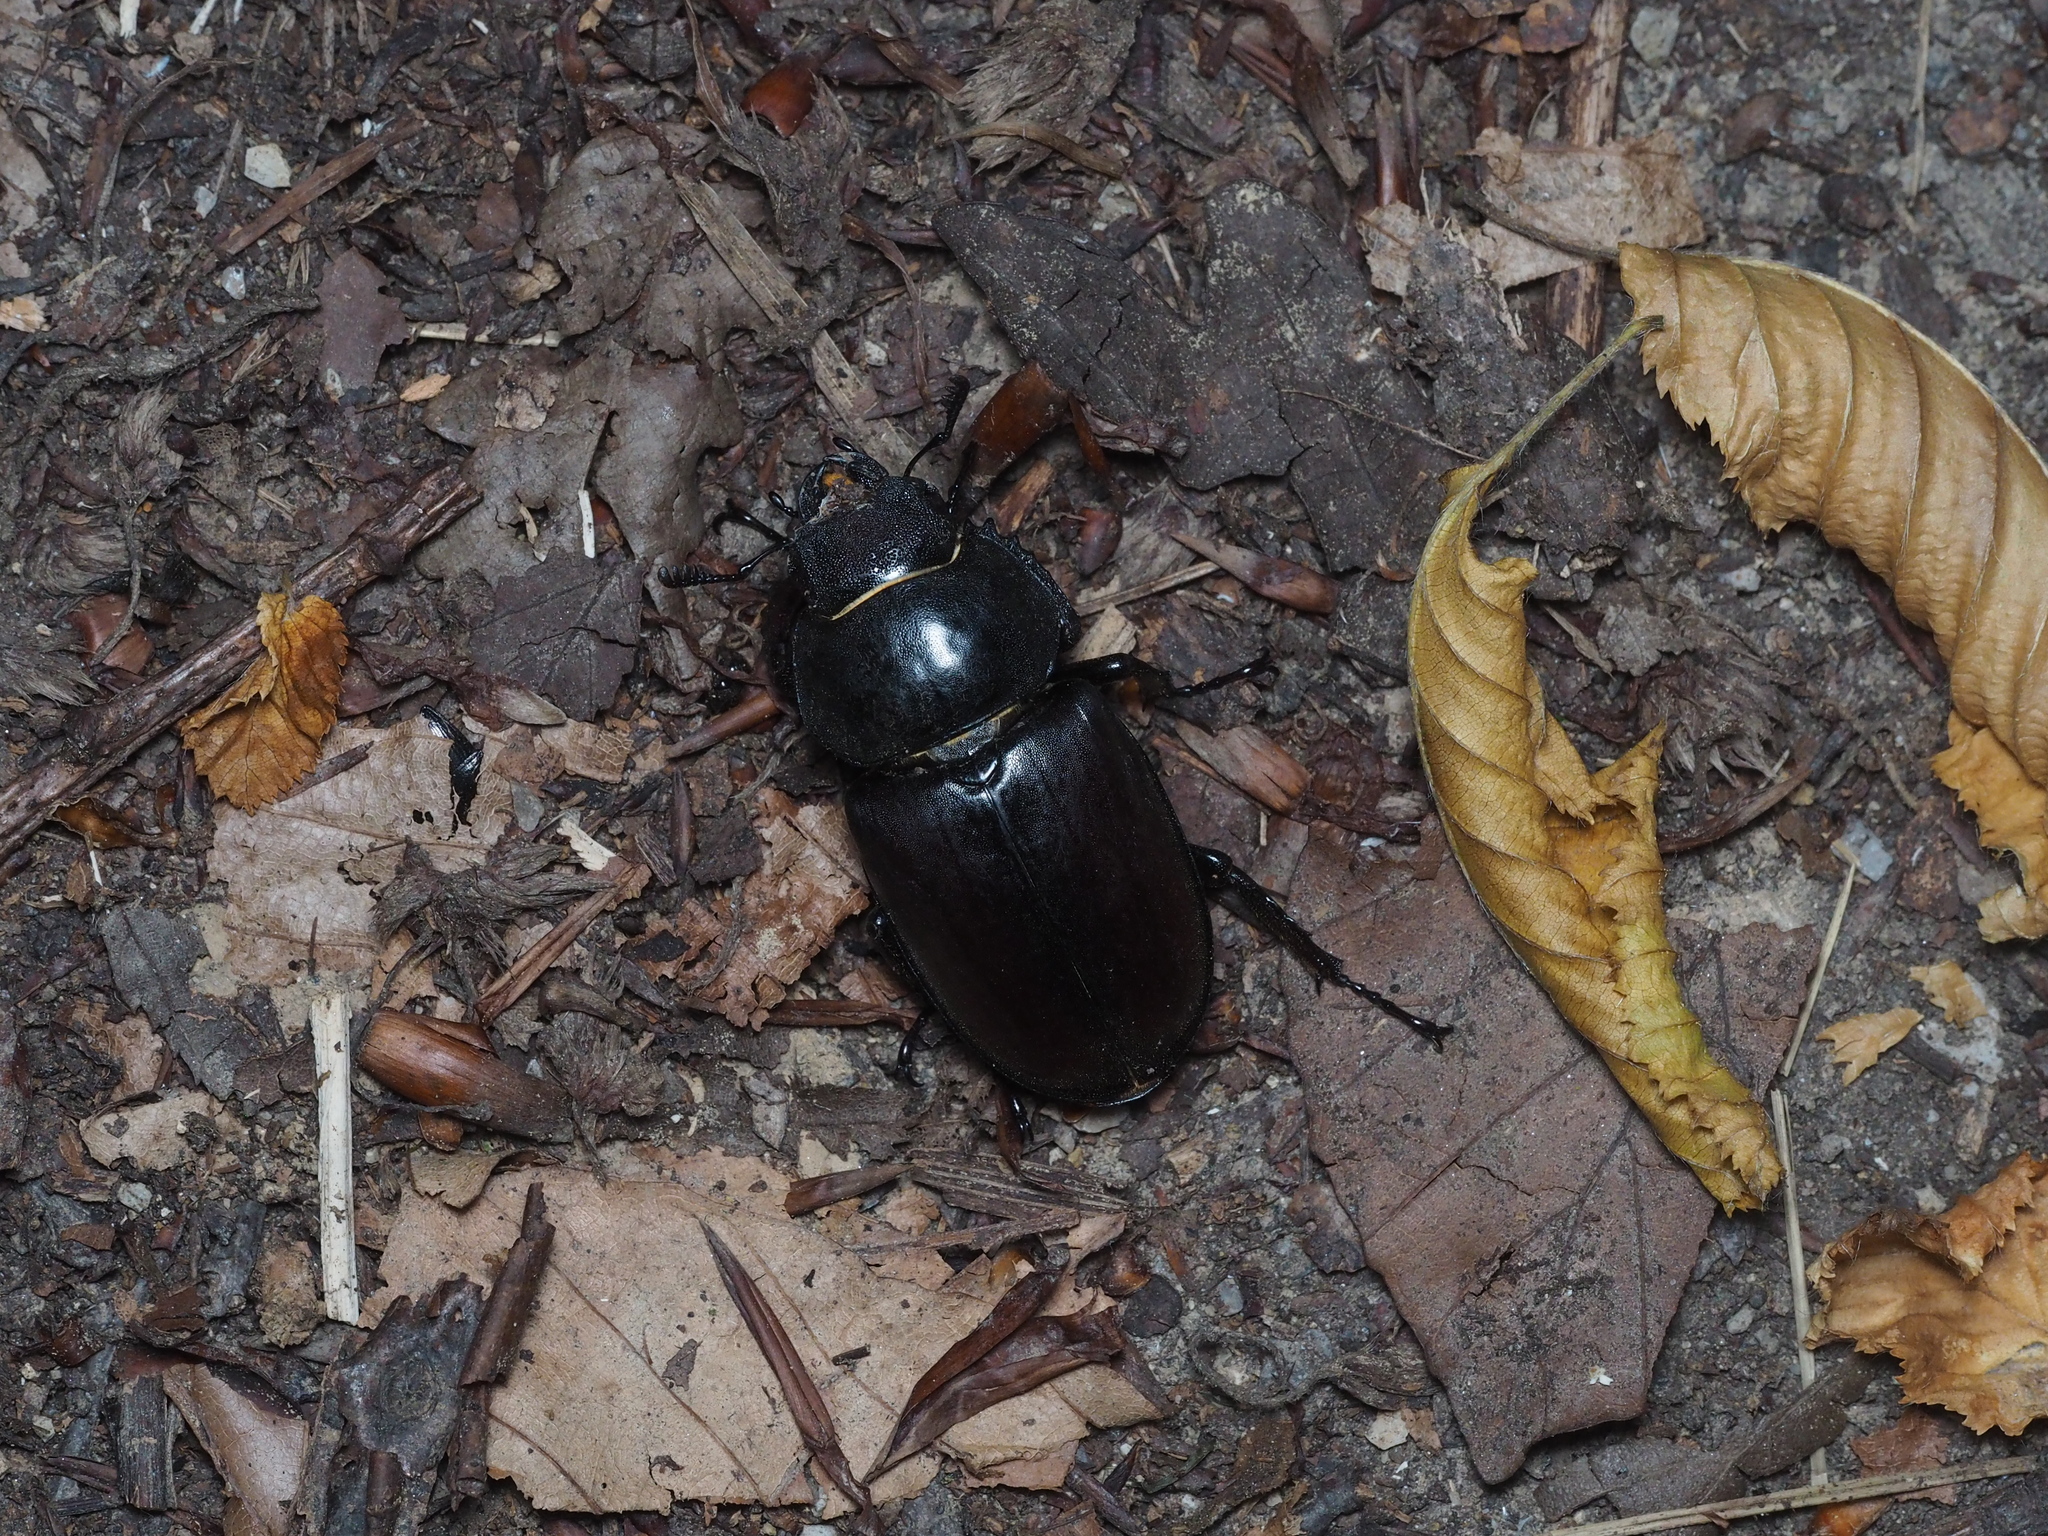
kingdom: Animalia
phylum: Arthropoda
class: Insecta
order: Coleoptera
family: Lucanidae
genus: Lucanus
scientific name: Lucanus cervus
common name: Stag beetle
